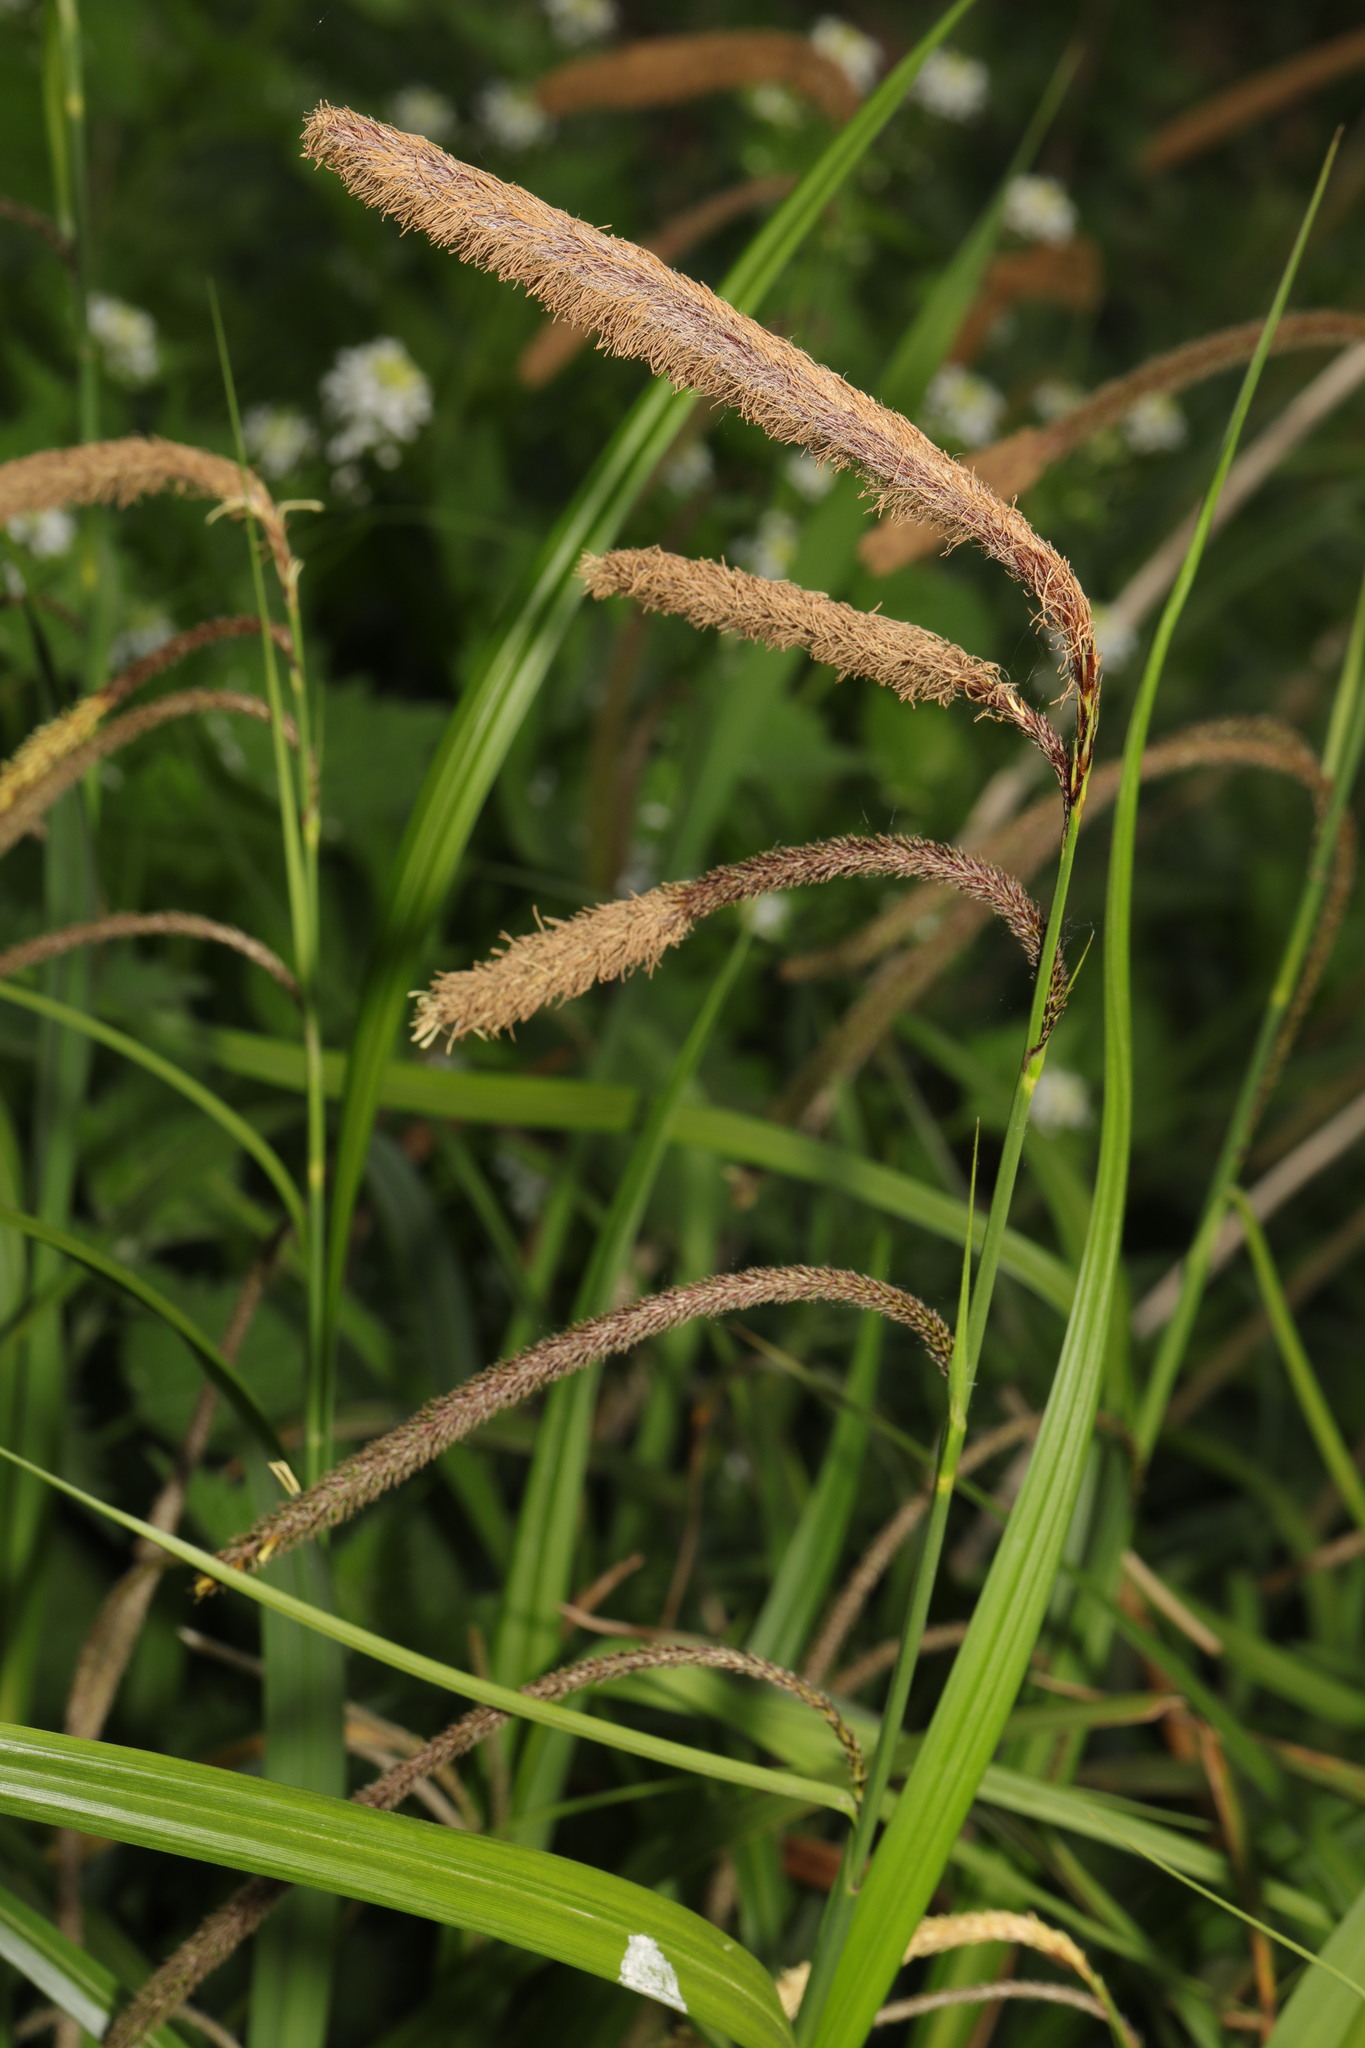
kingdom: Plantae
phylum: Tracheophyta
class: Liliopsida
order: Poales
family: Cyperaceae
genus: Carex
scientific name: Carex pendula
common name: Pendulous sedge
